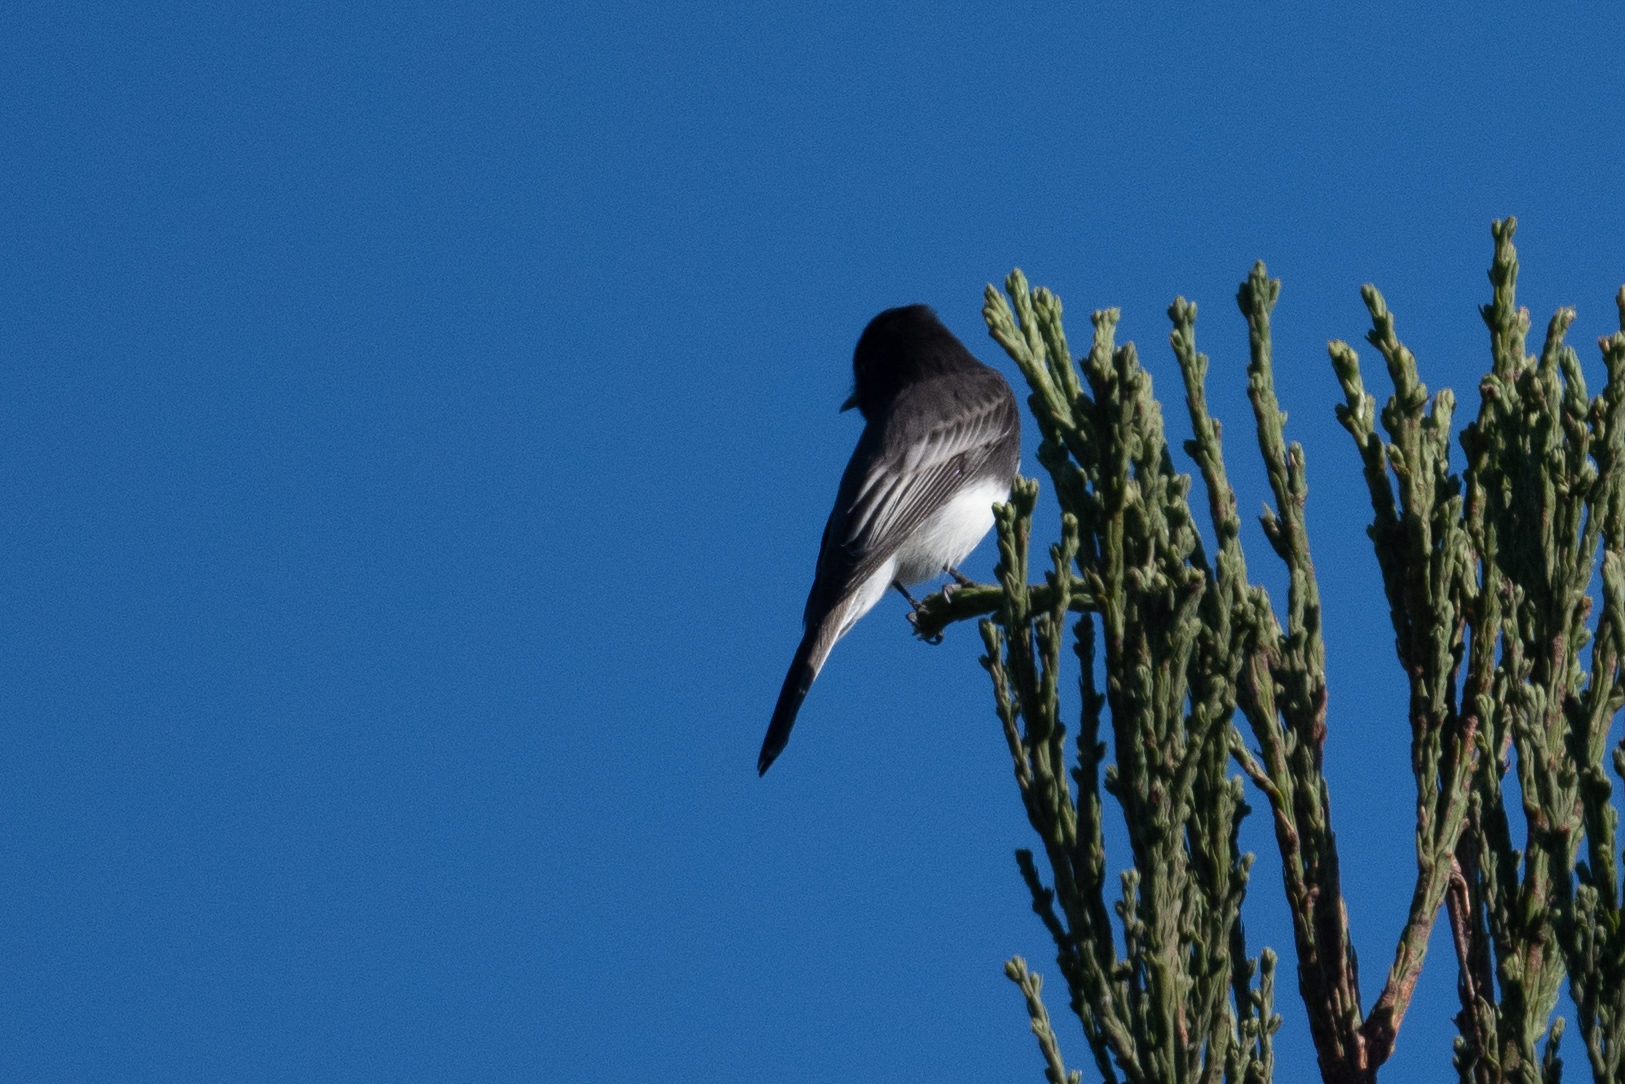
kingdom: Animalia
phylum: Chordata
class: Aves
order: Passeriformes
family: Tyrannidae
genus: Sayornis
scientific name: Sayornis nigricans
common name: Black phoebe
